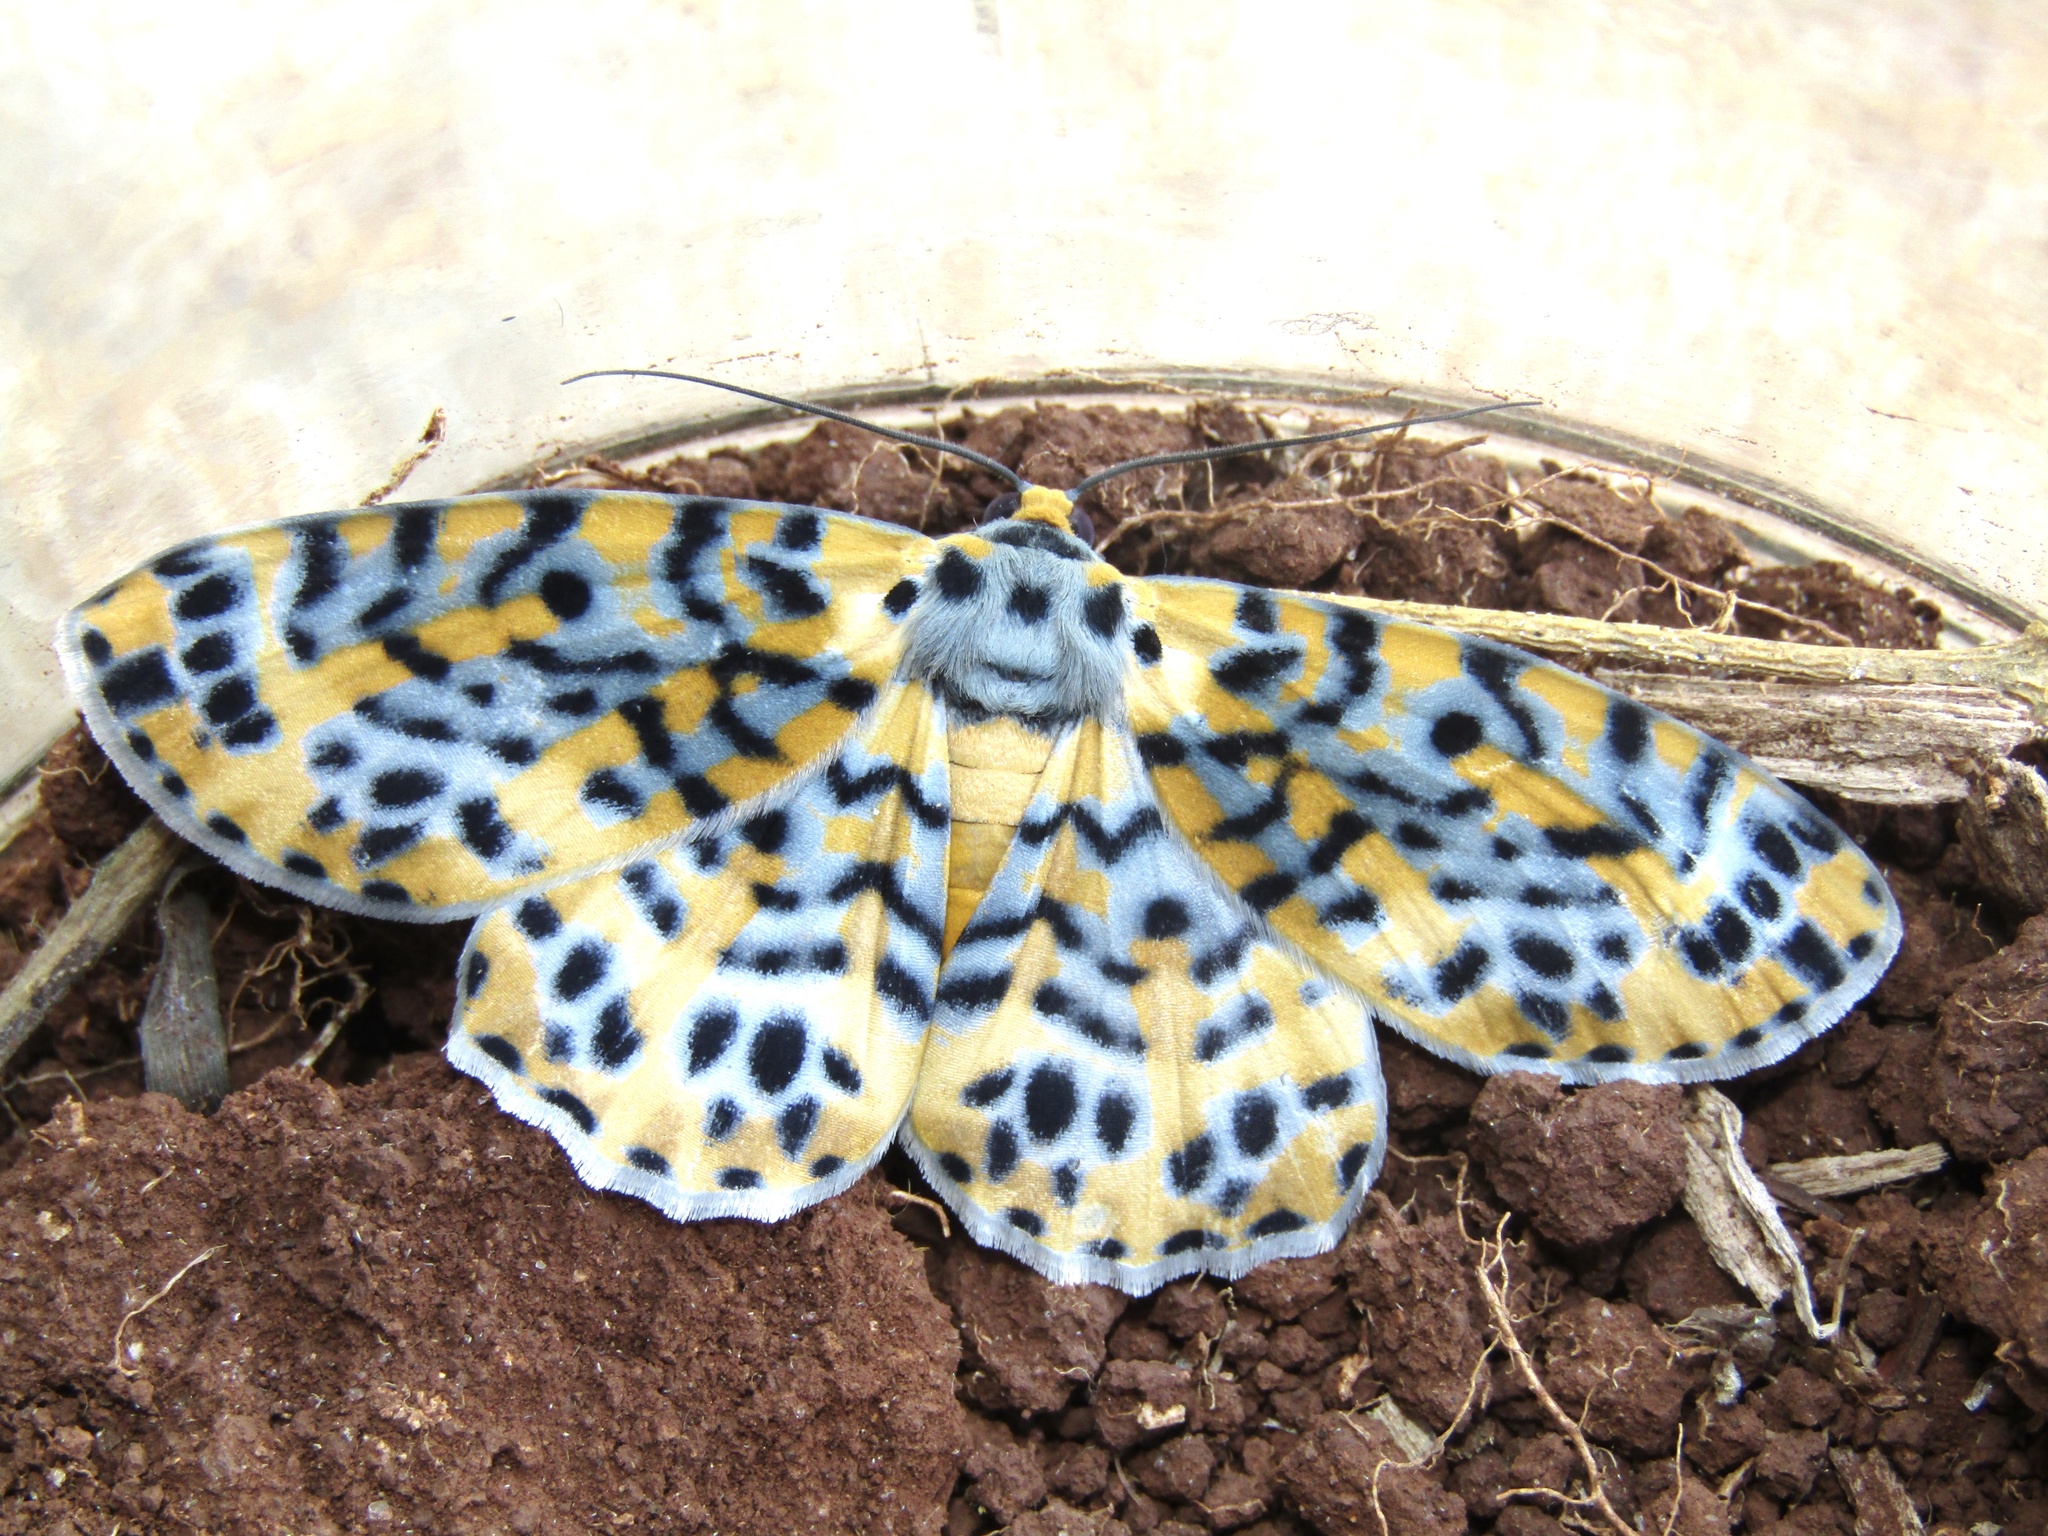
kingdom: Animalia
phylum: Arthropoda
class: Insecta
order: Lepidoptera
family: Geometridae
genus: Bracca
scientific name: Bracca matutinata
